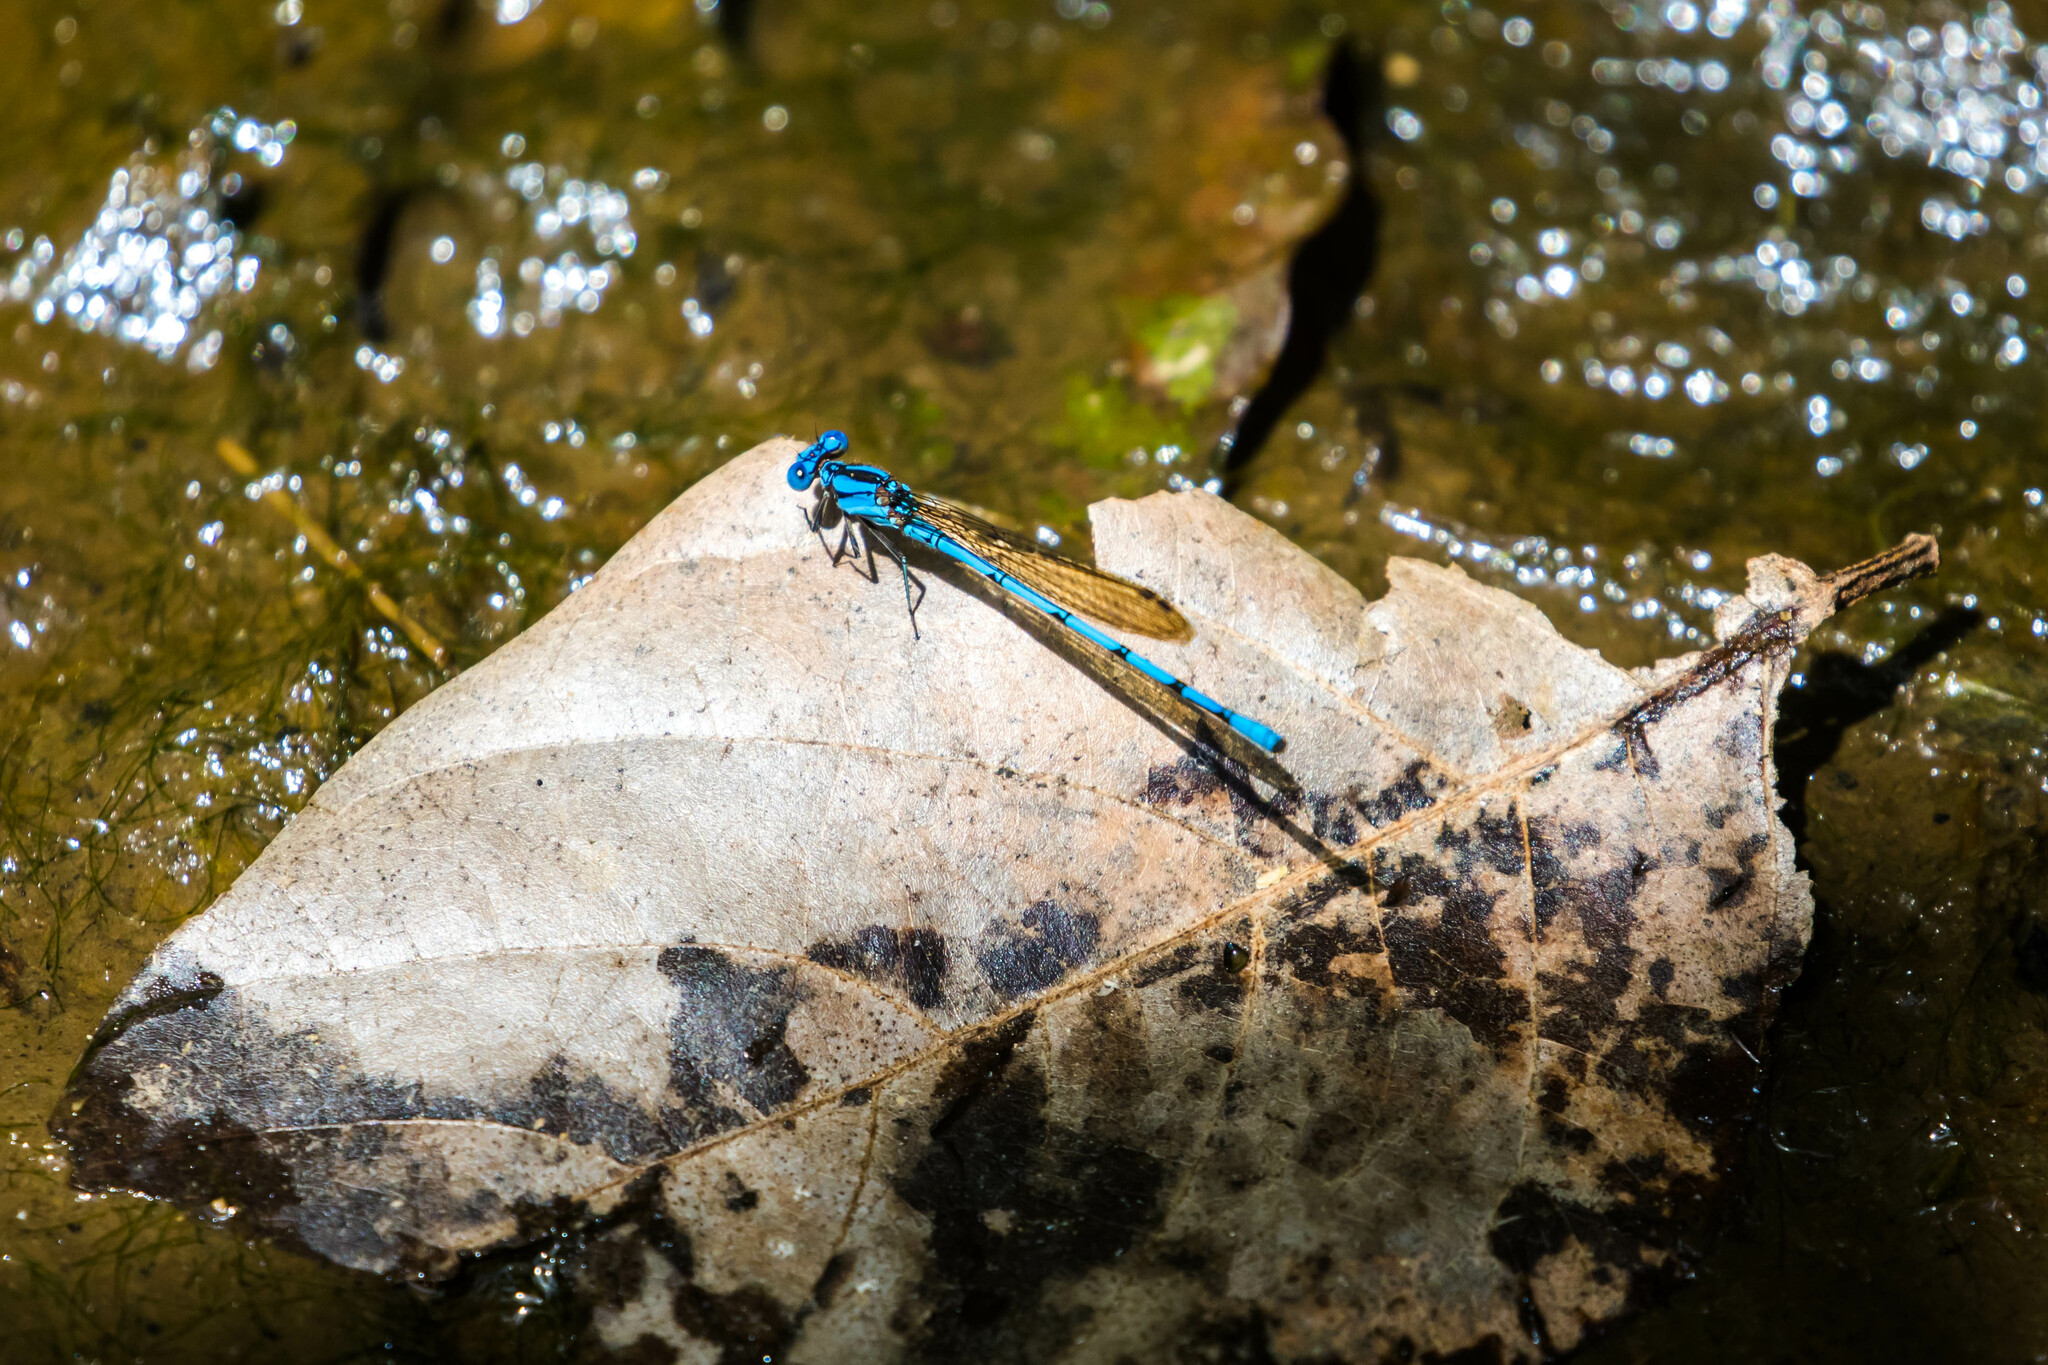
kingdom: Animalia
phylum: Arthropoda
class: Insecta
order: Odonata
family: Coenagrionidae
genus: Argia
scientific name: Argia fissa
